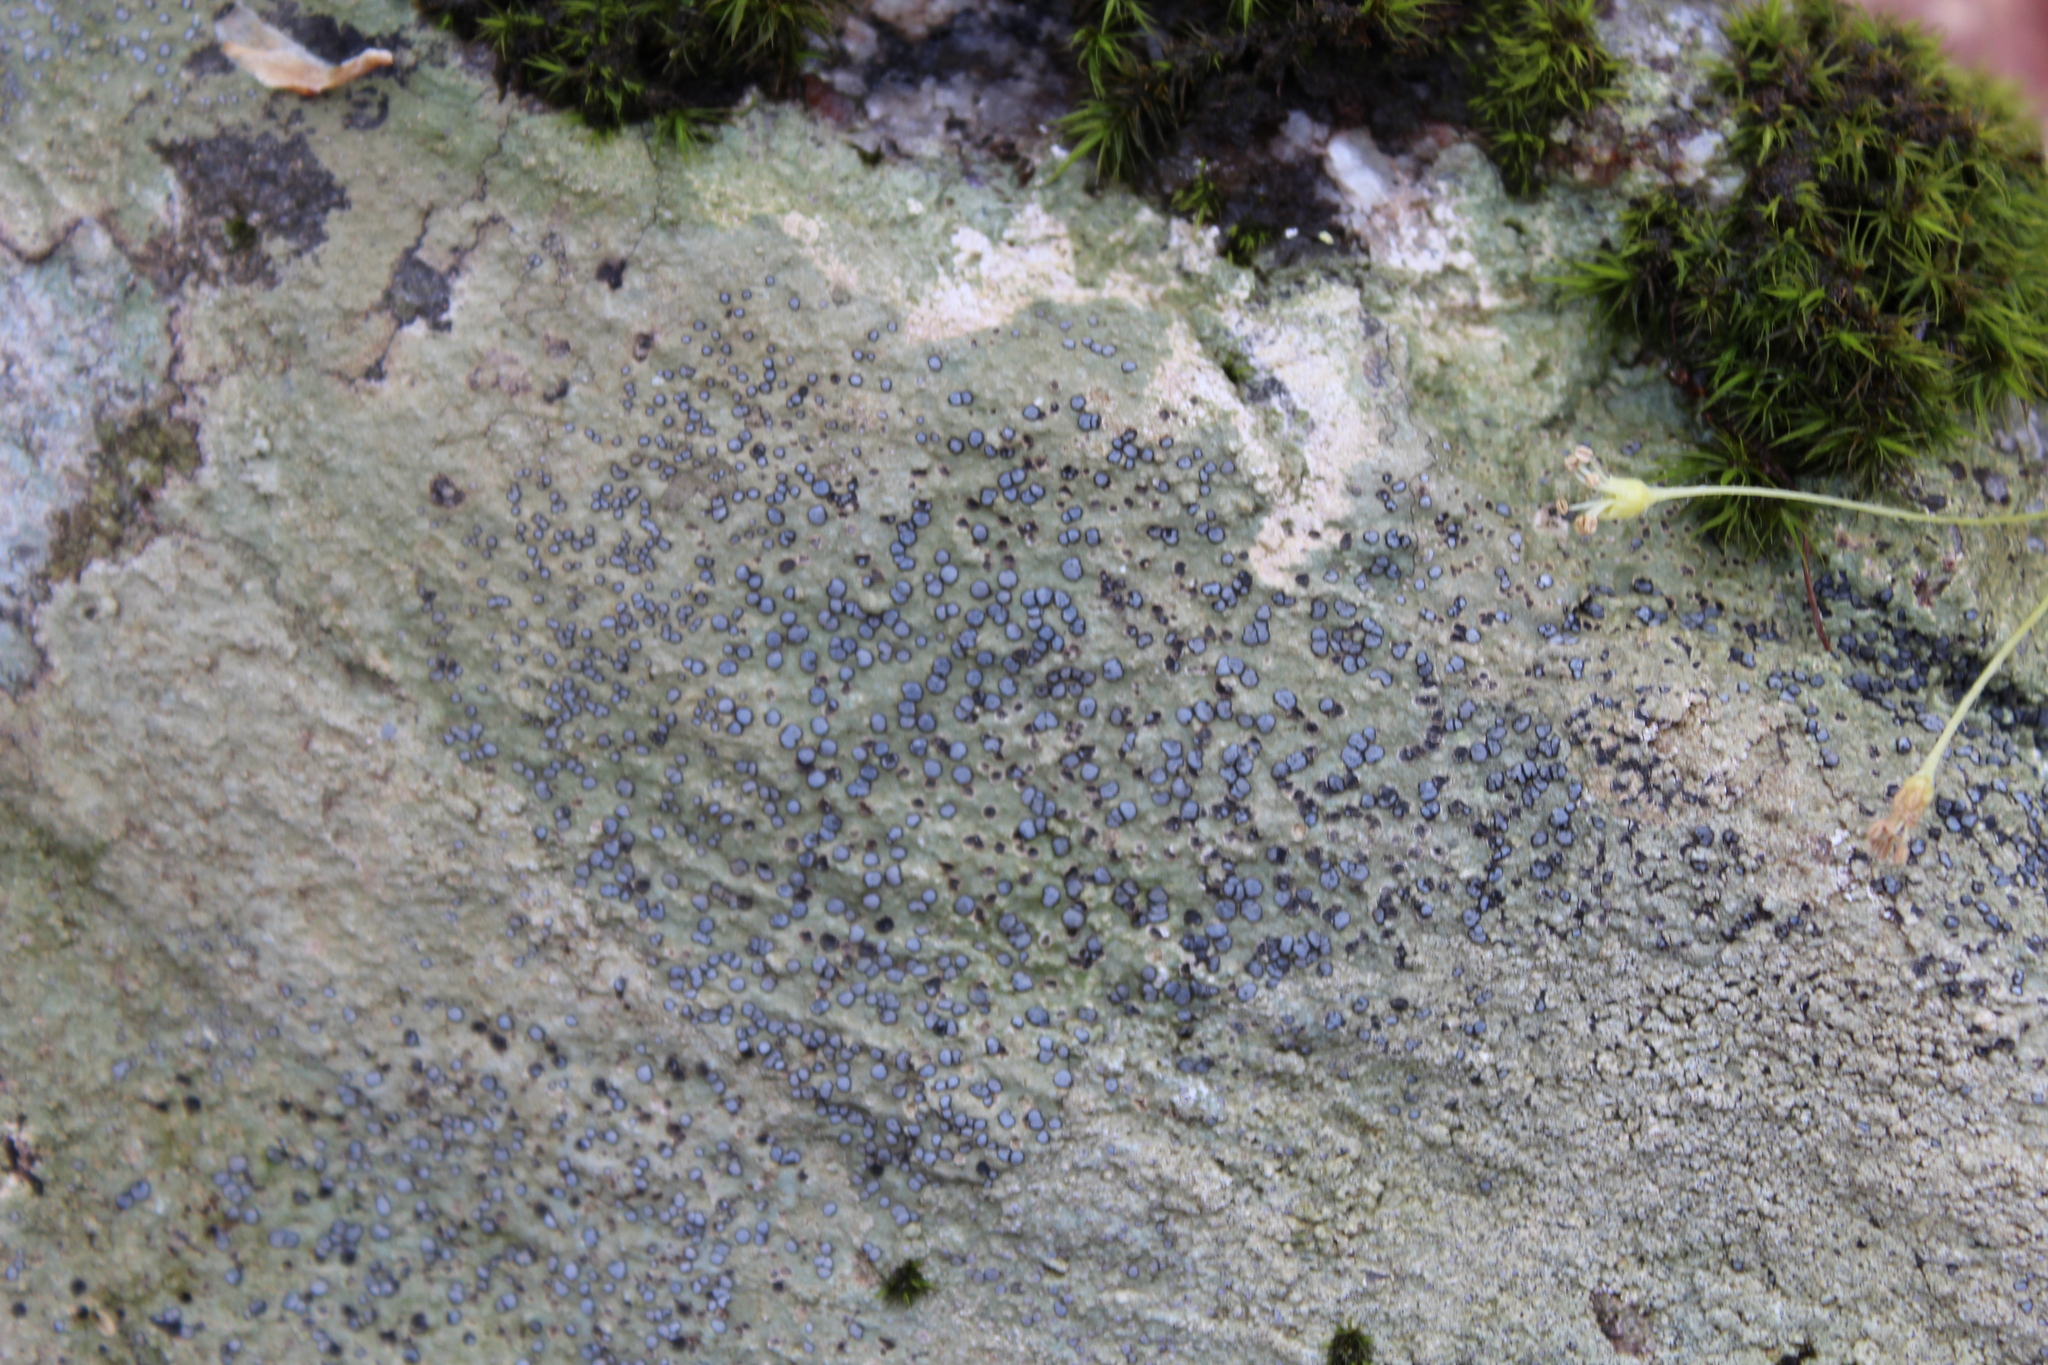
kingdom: Fungi
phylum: Ascomycota
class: Lecanoromycetes
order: Lecideales
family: Lecideaceae
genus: Porpidia
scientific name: Porpidia albocaerulescens
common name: Smokey-eyed boulder lichen
